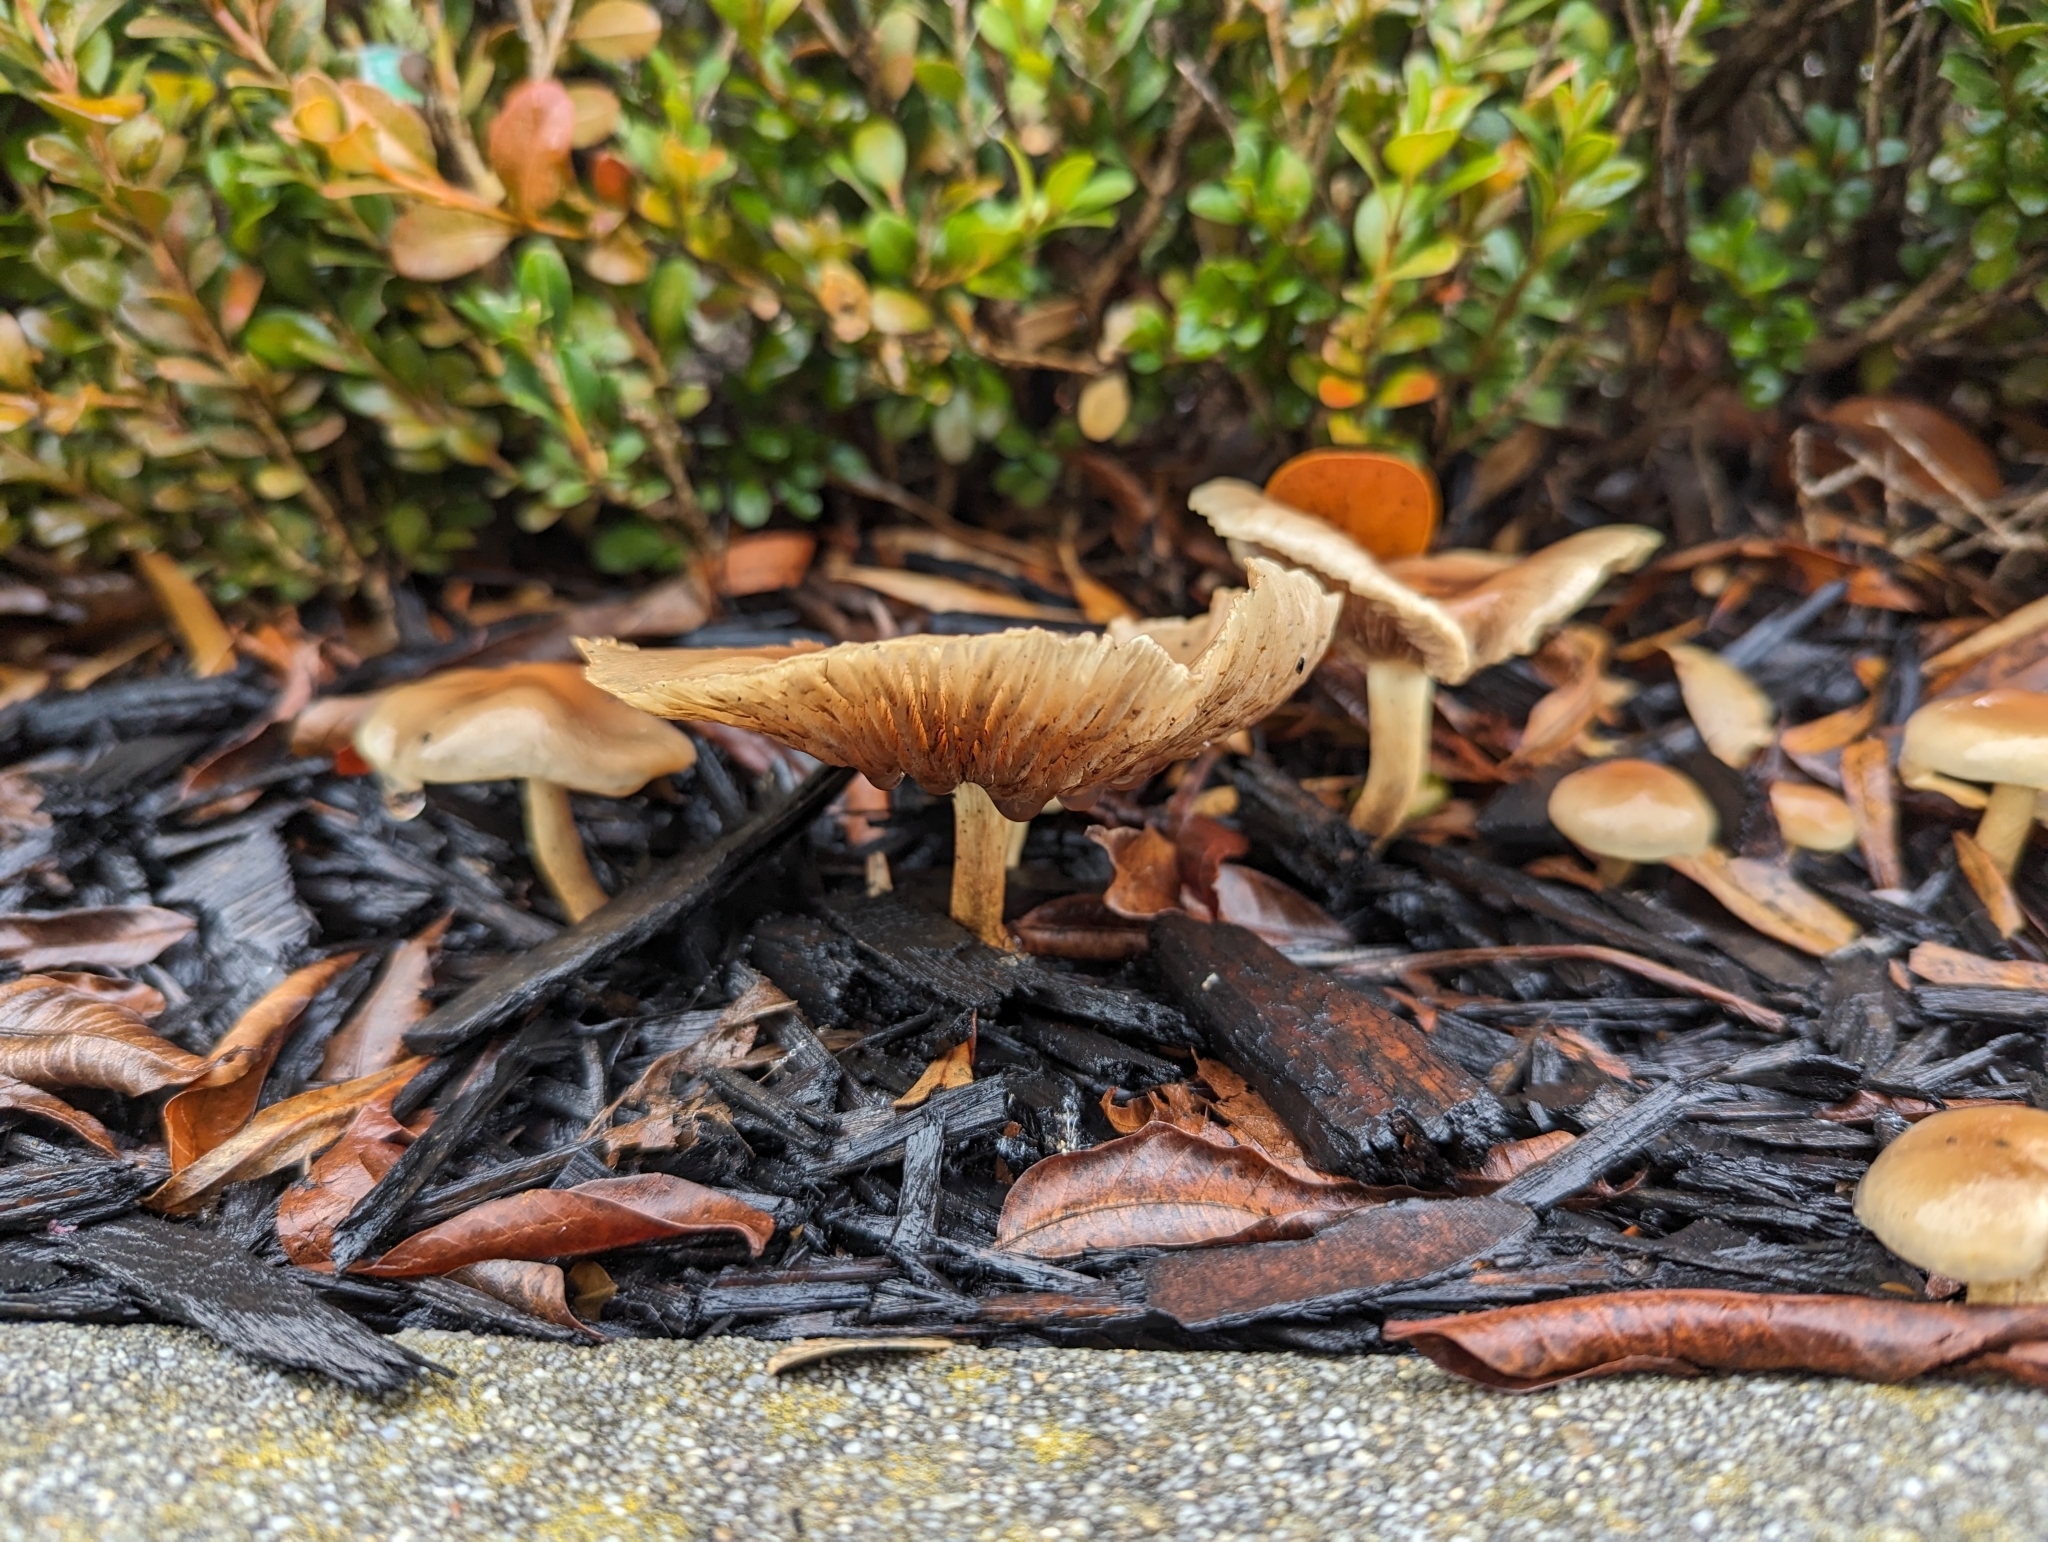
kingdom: Fungi
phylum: Basidiomycota
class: Agaricomycetes
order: Agaricales
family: Strophariaceae
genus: Pholiota
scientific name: Pholiota spumosa
